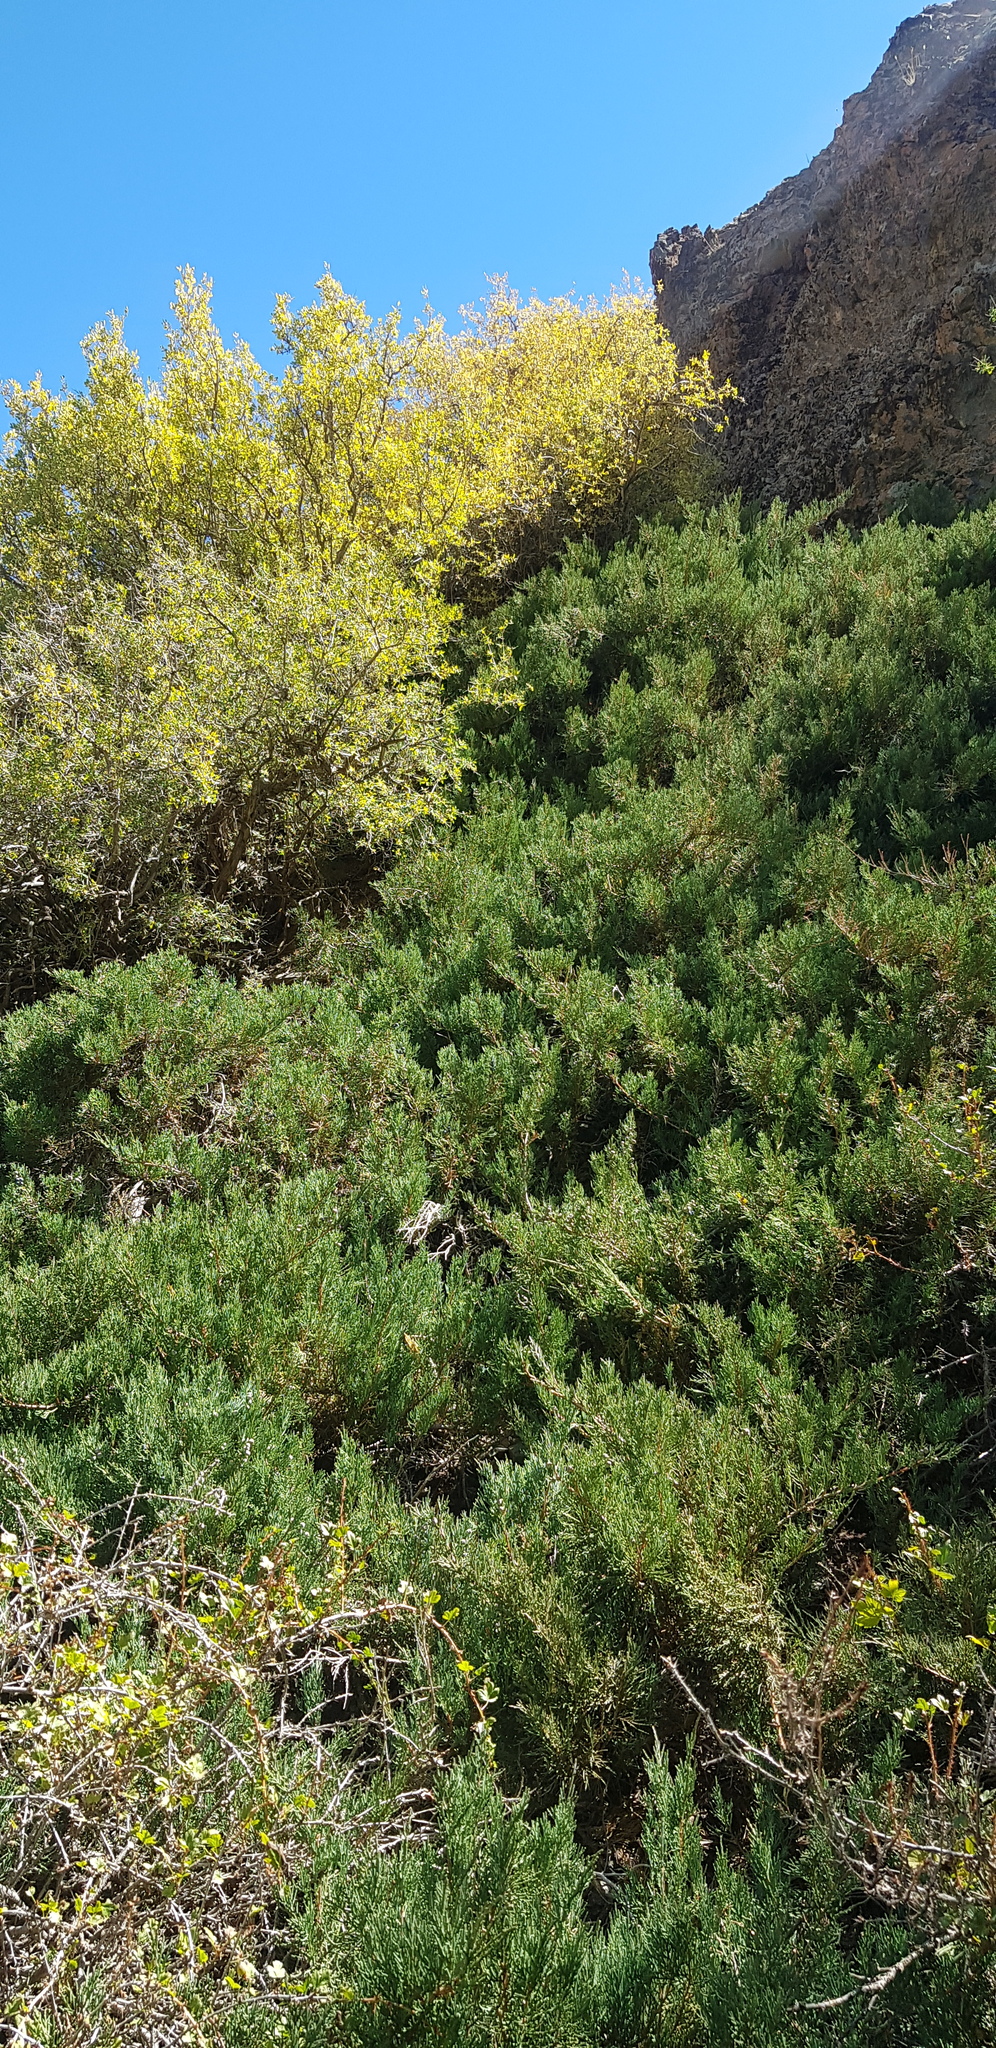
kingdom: Plantae
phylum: Tracheophyta
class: Pinopsida
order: Pinales
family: Cupressaceae
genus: Juniperus
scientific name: Juniperus sabina
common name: Savin
